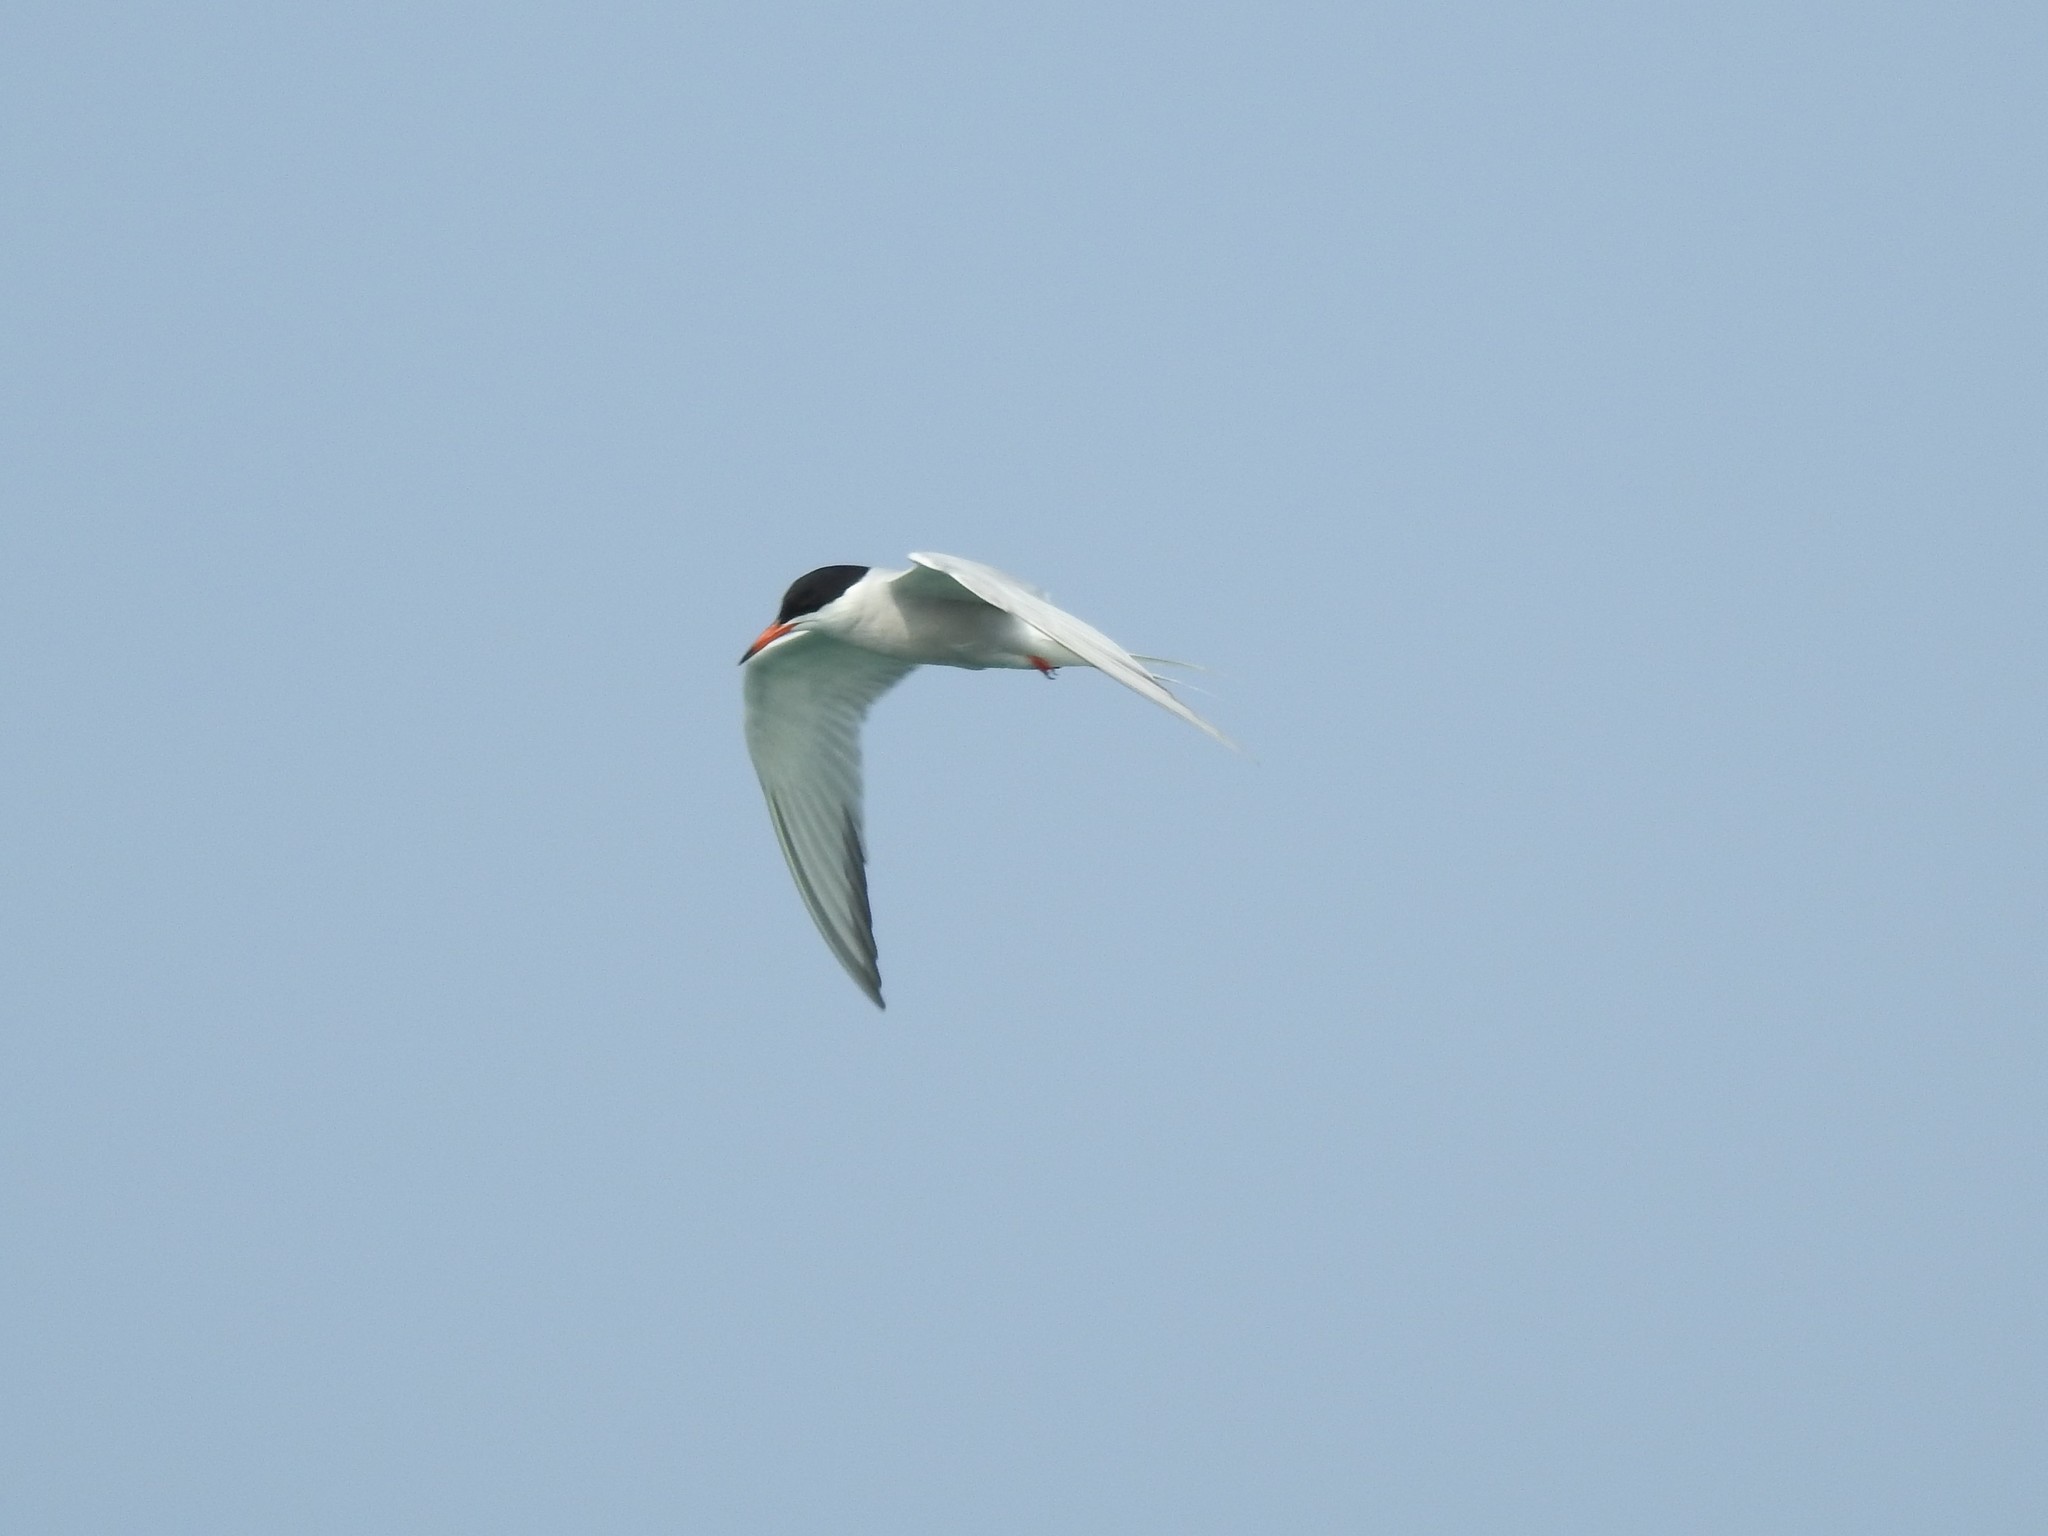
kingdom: Animalia
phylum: Chordata
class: Aves
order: Charadriiformes
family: Laridae
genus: Sterna
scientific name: Sterna forsteri
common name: Forster's tern
